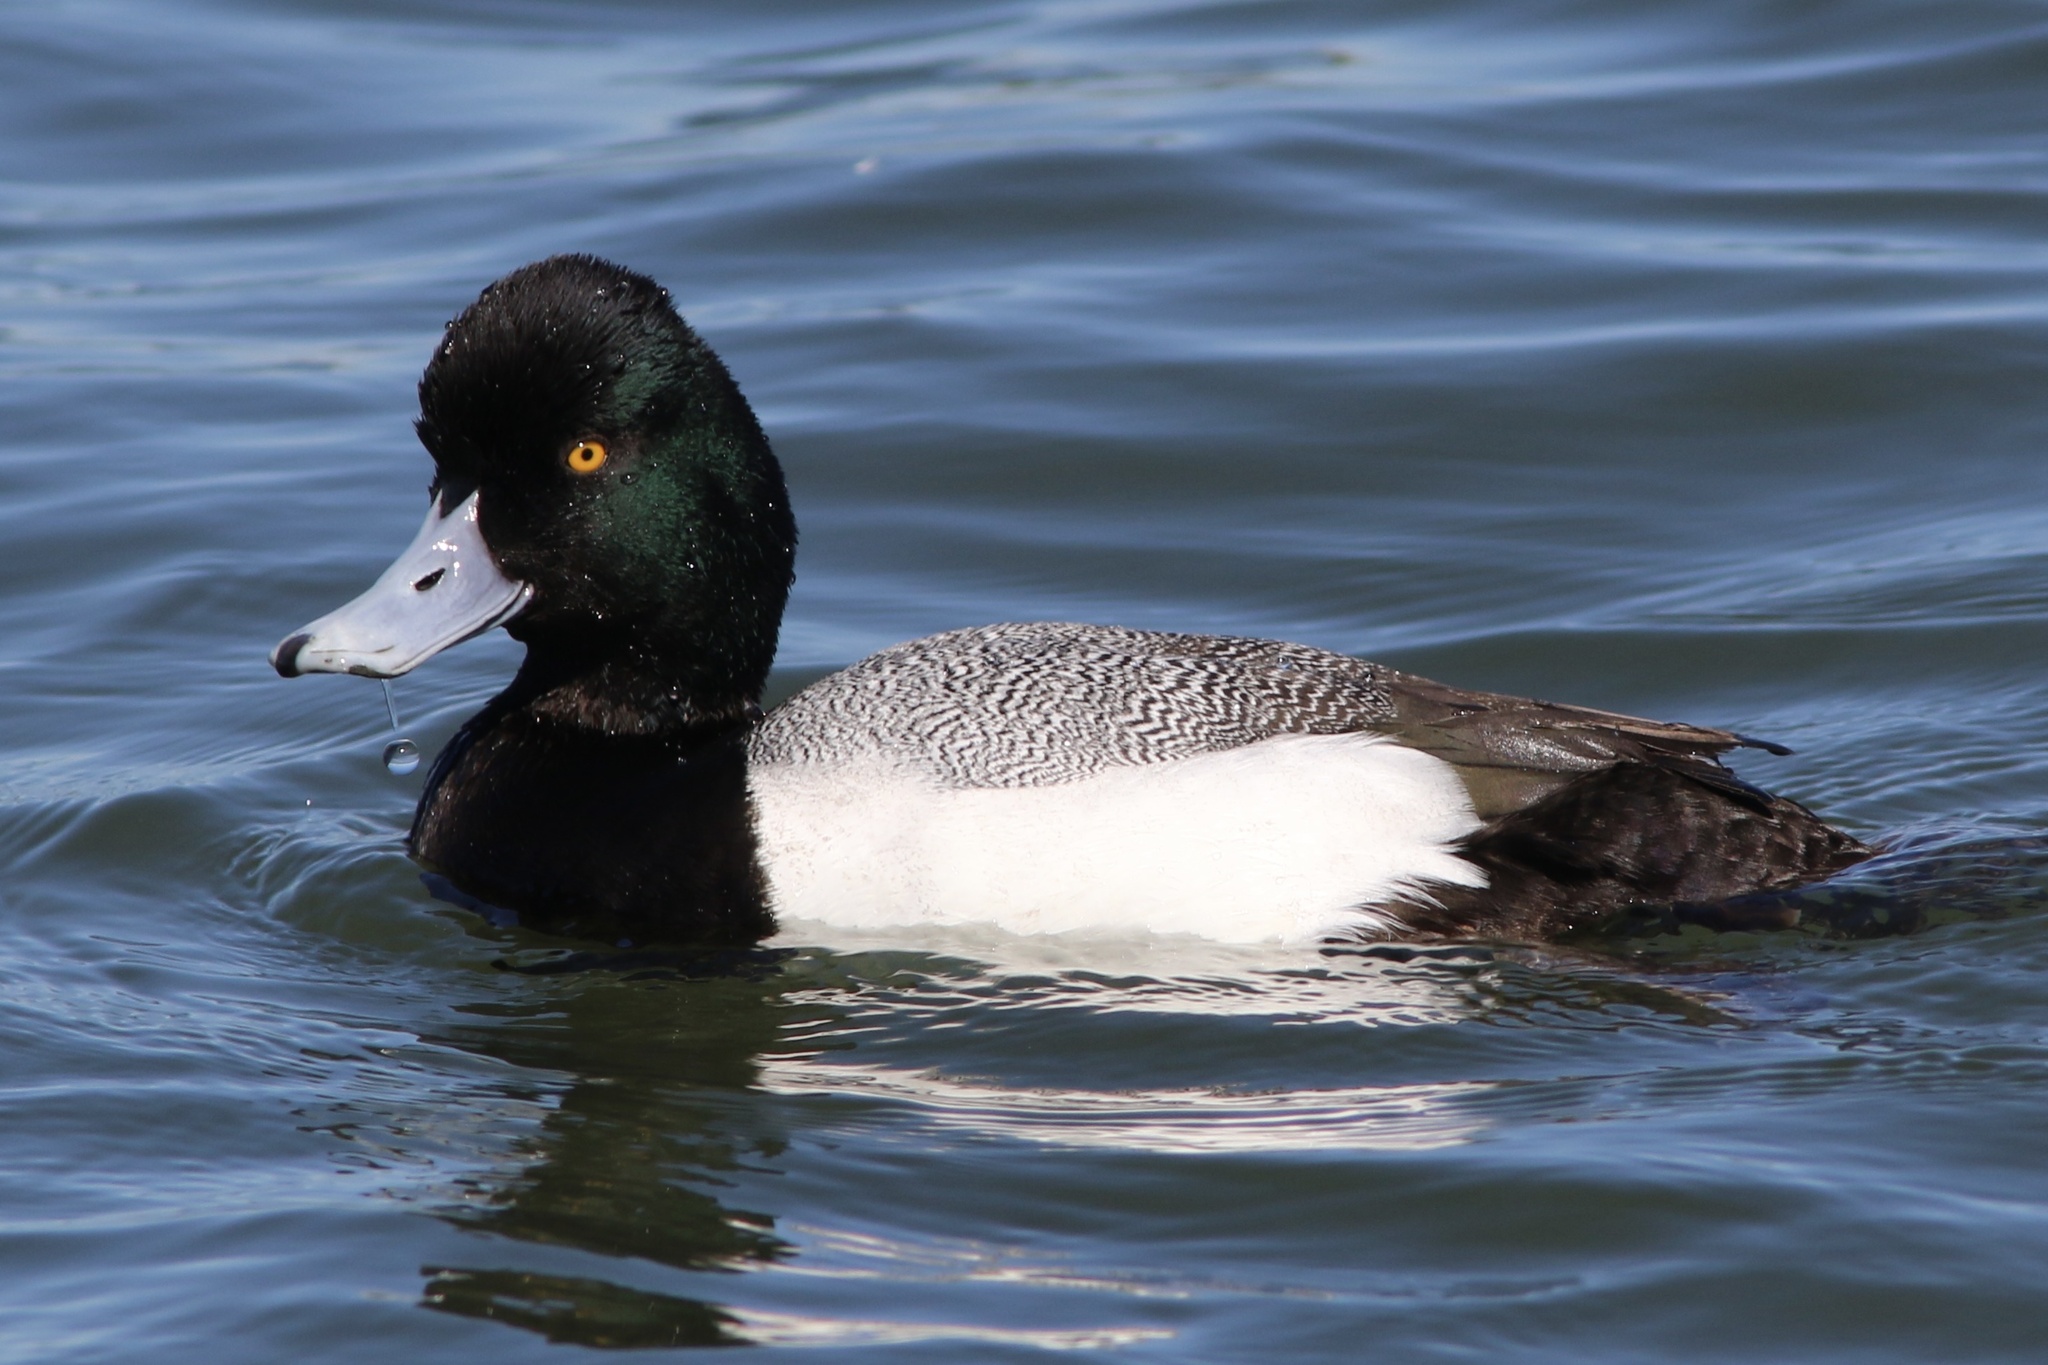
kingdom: Animalia
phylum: Chordata
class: Aves
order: Anseriformes
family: Anatidae
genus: Aythya
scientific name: Aythya affinis
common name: Lesser scaup
